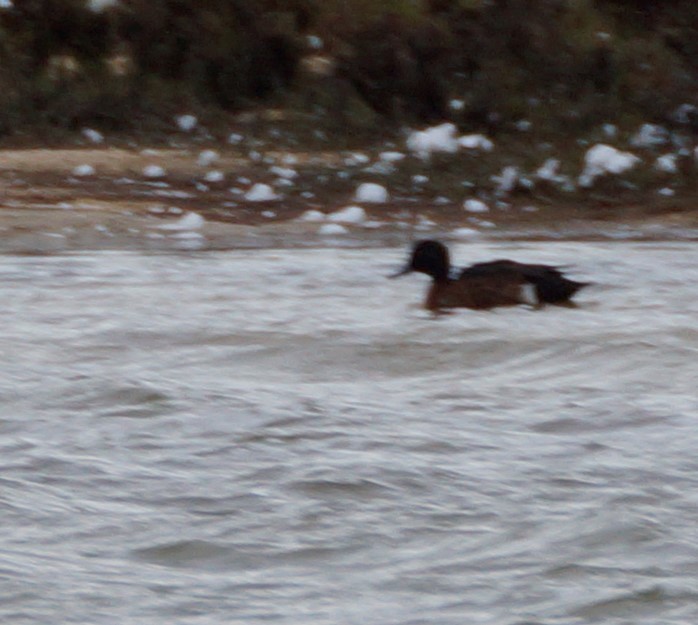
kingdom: Animalia
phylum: Chordata
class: Aves
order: Anseriformes
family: Anatidae
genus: Anas
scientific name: Anas castanea
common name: Chestnut teal
